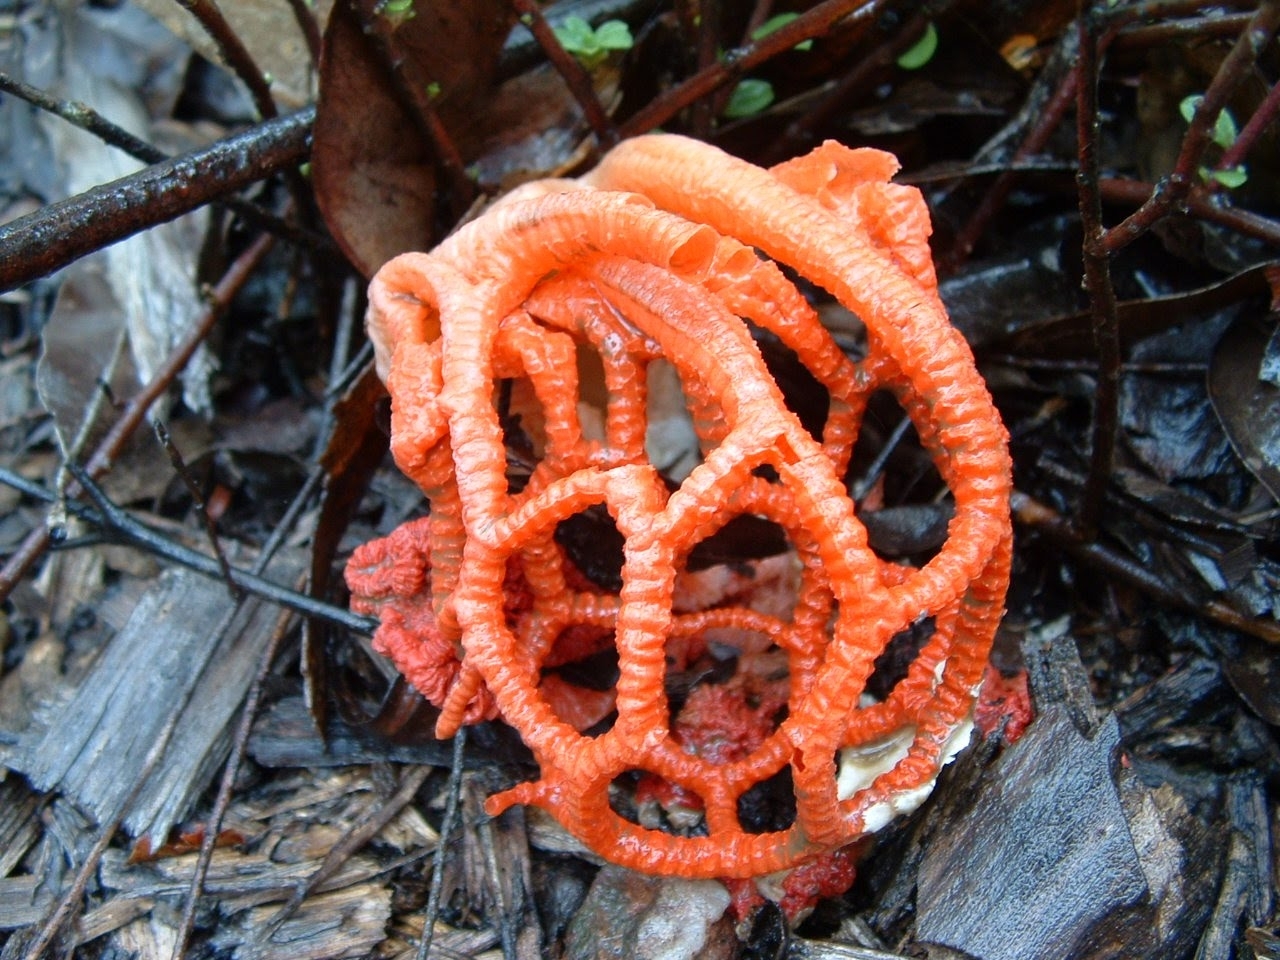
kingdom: Fungi
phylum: Basidiomycota
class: Agaricomycetes
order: Phallales
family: Phallaceae
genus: Colus
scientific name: Colus pusillus
